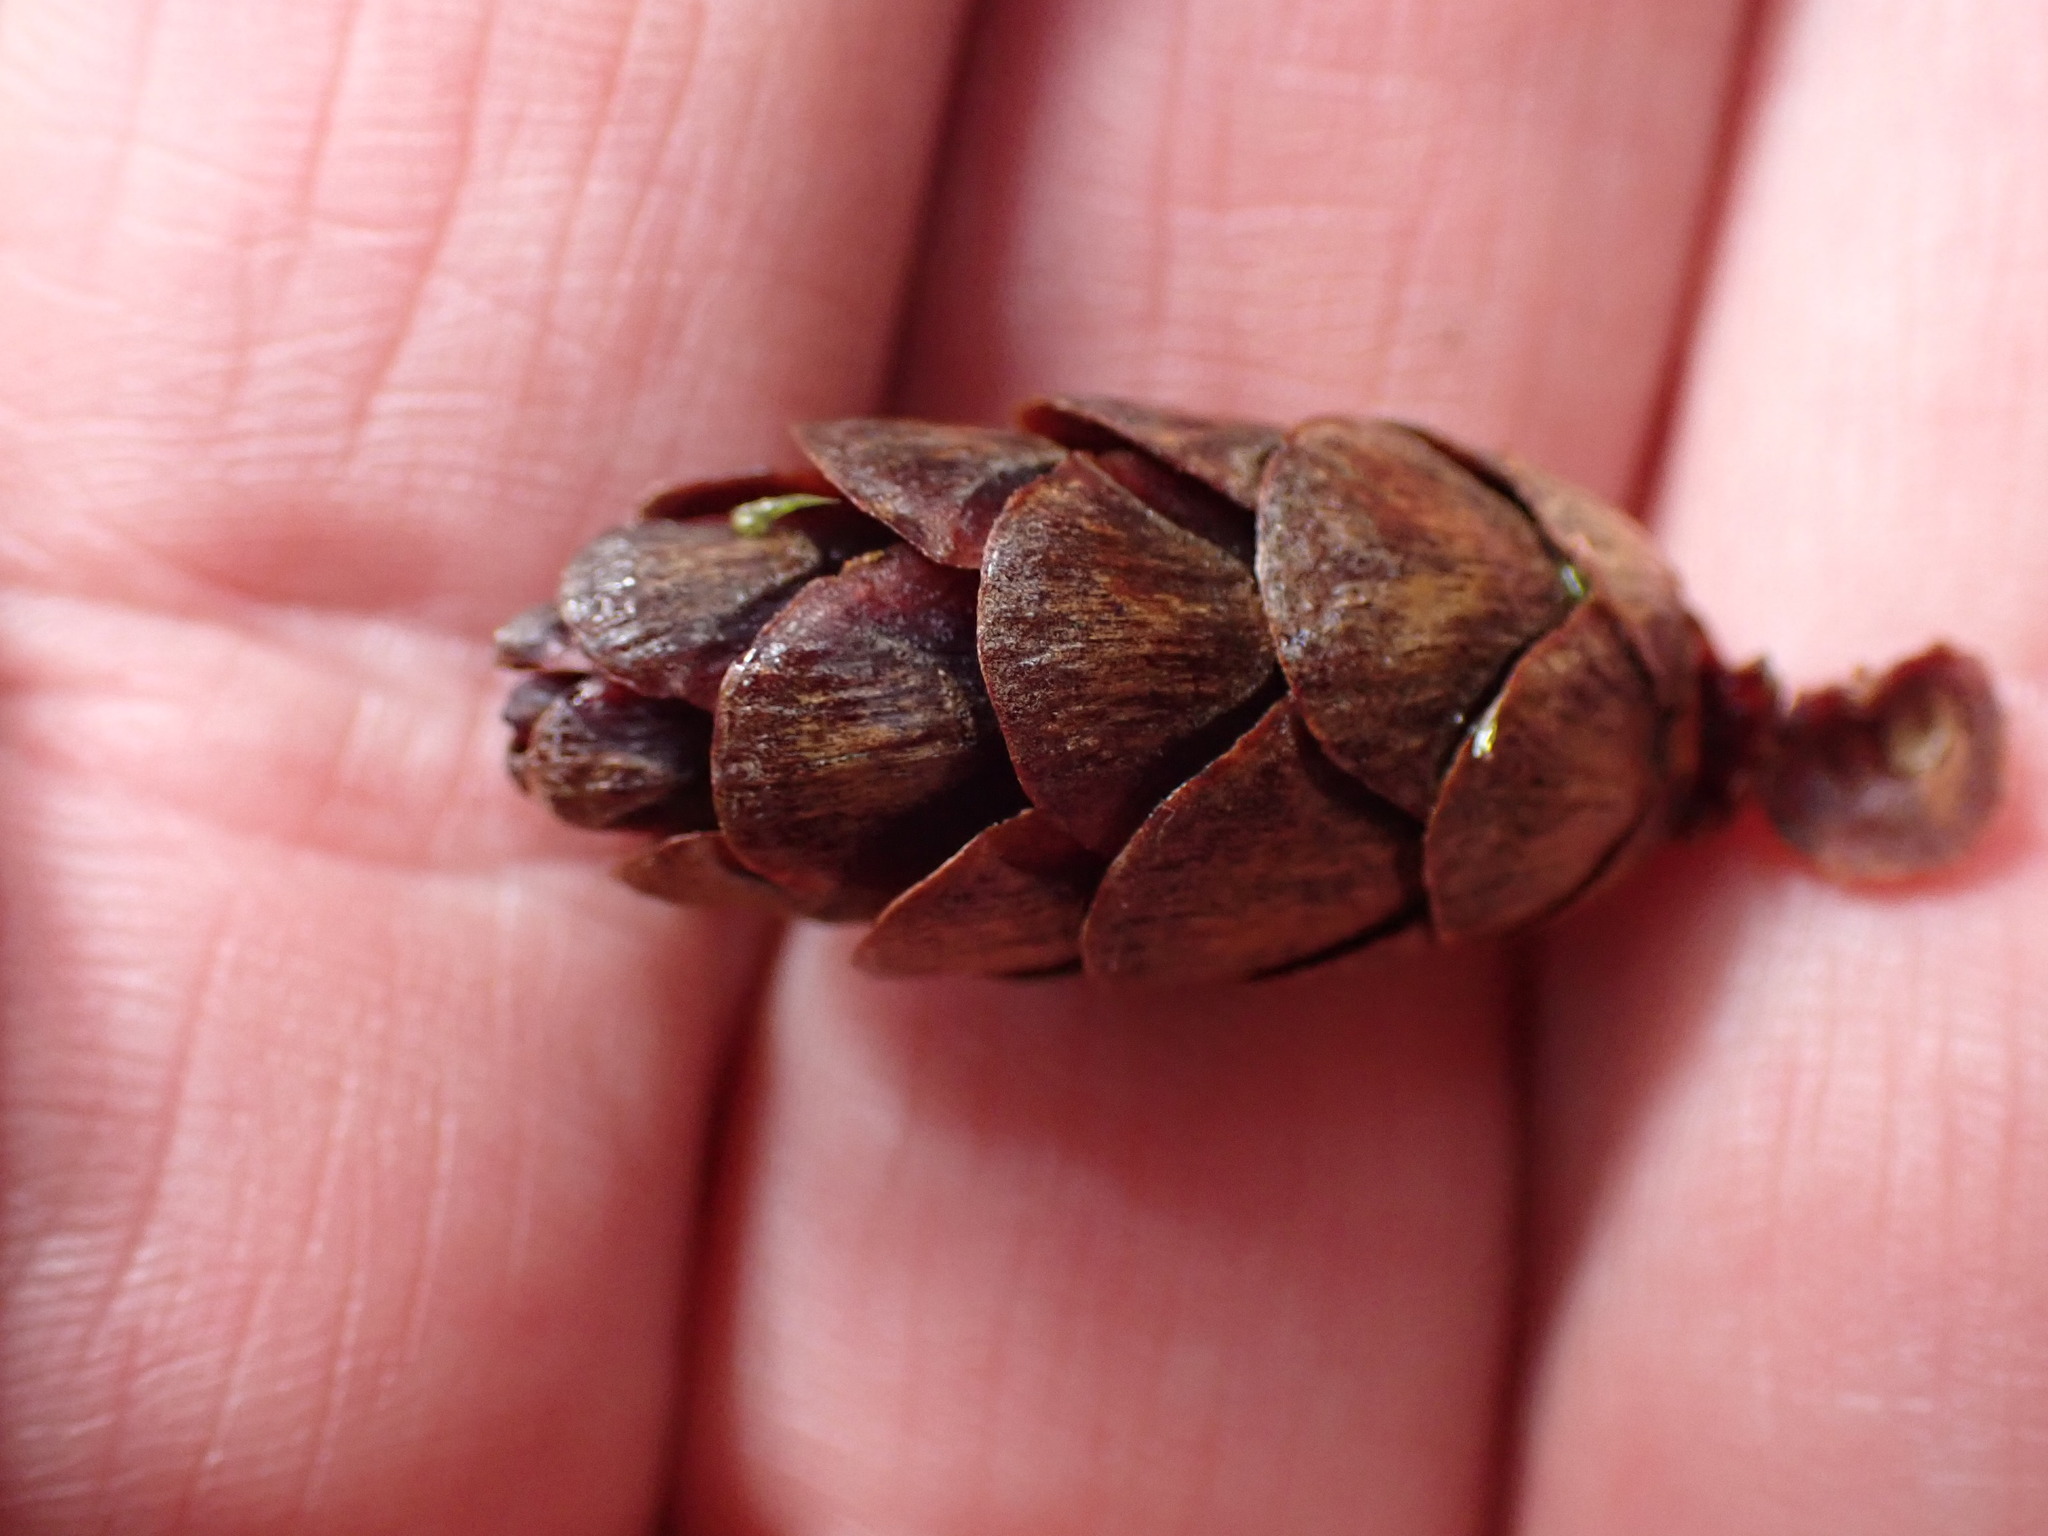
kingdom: Plantae
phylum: Tracheophyta
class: Pinopsida
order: Pinales
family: Pinaceae
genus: Tsuga
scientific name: Tsuga heterophylla
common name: Western hemlock
